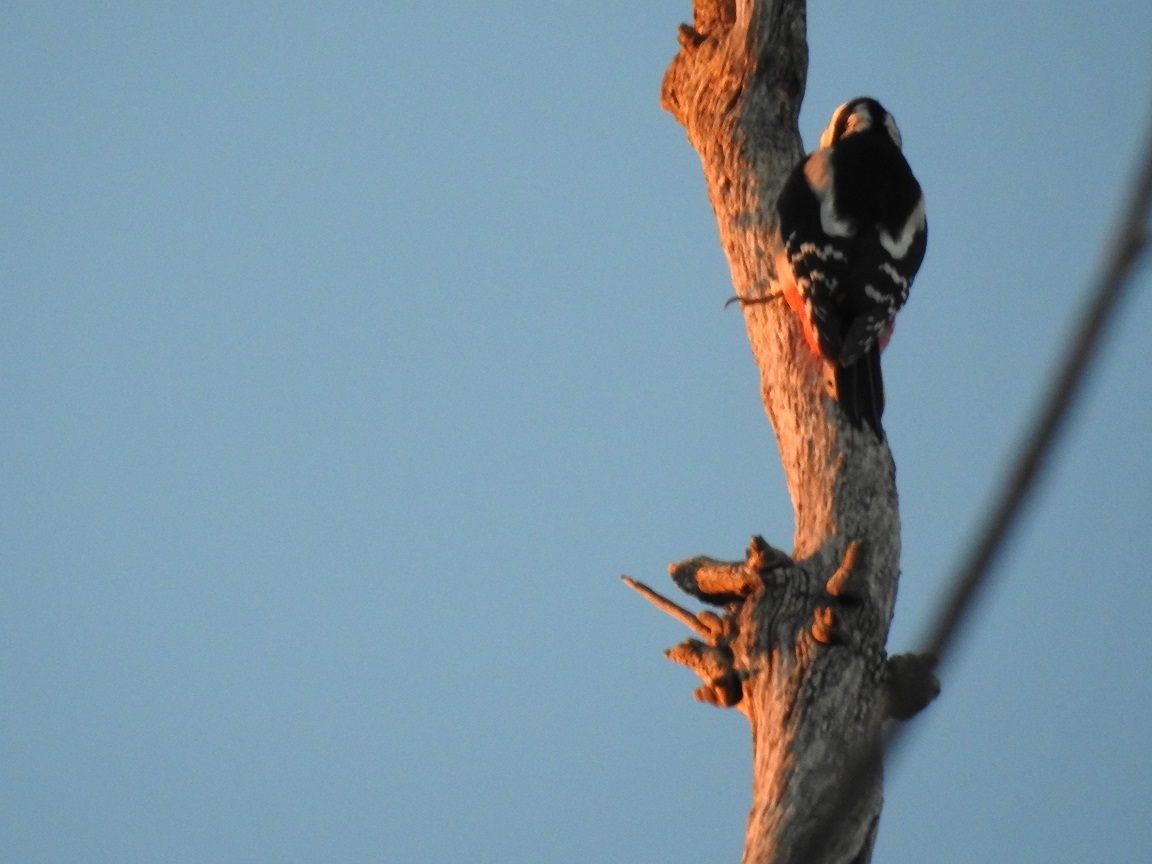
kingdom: Animalia
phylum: Chordata
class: Aves
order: Piciformes
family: Picidae
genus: Dendrocopos
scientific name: Dendrocopos major
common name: Great spotted woodpecker
